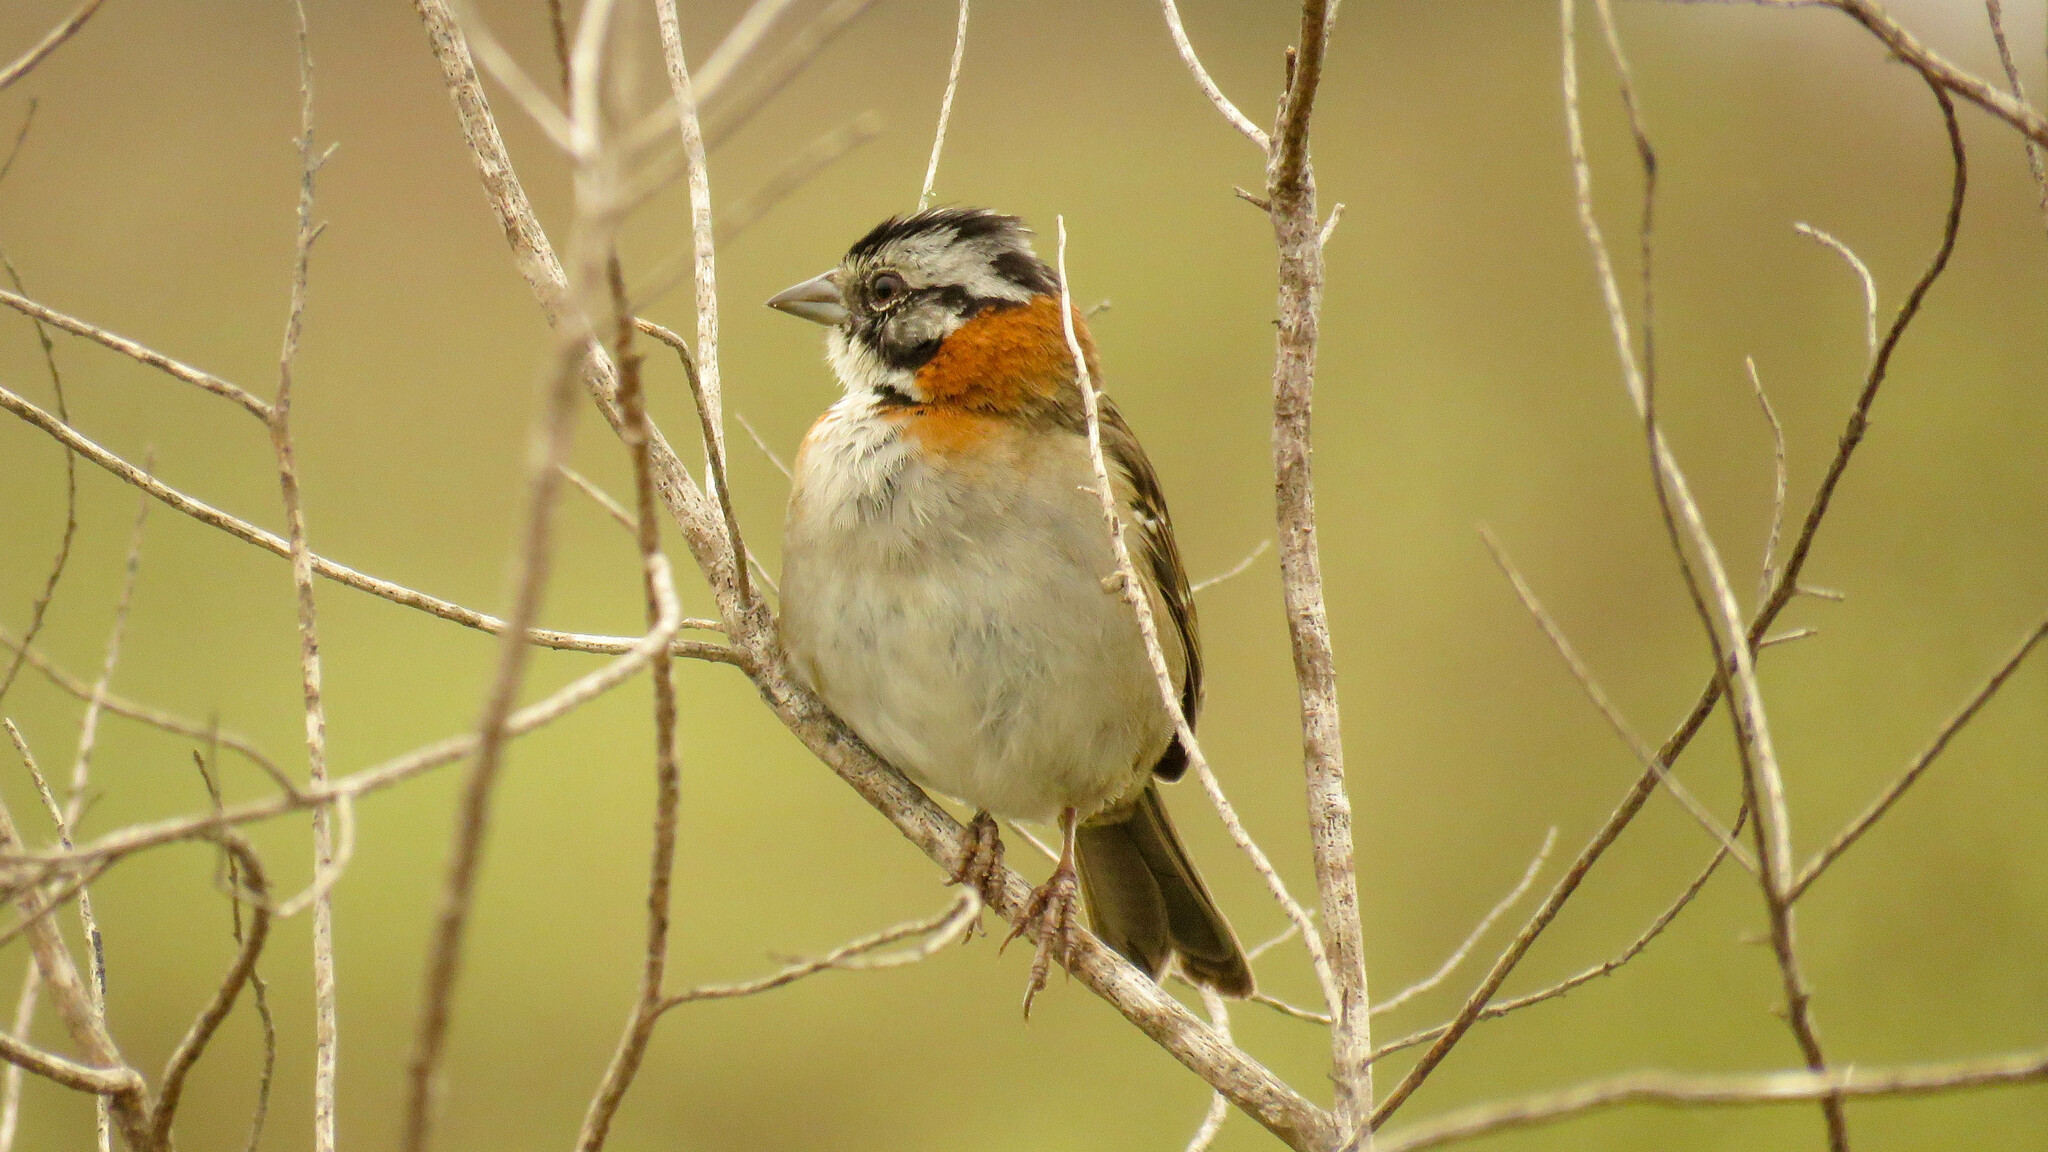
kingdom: Animalia
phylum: Chordata
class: Aves
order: Passeriformes
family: Passerellidae
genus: Zonotrichia
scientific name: Zonotrichia capensis
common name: Rufous-collared sparrow
